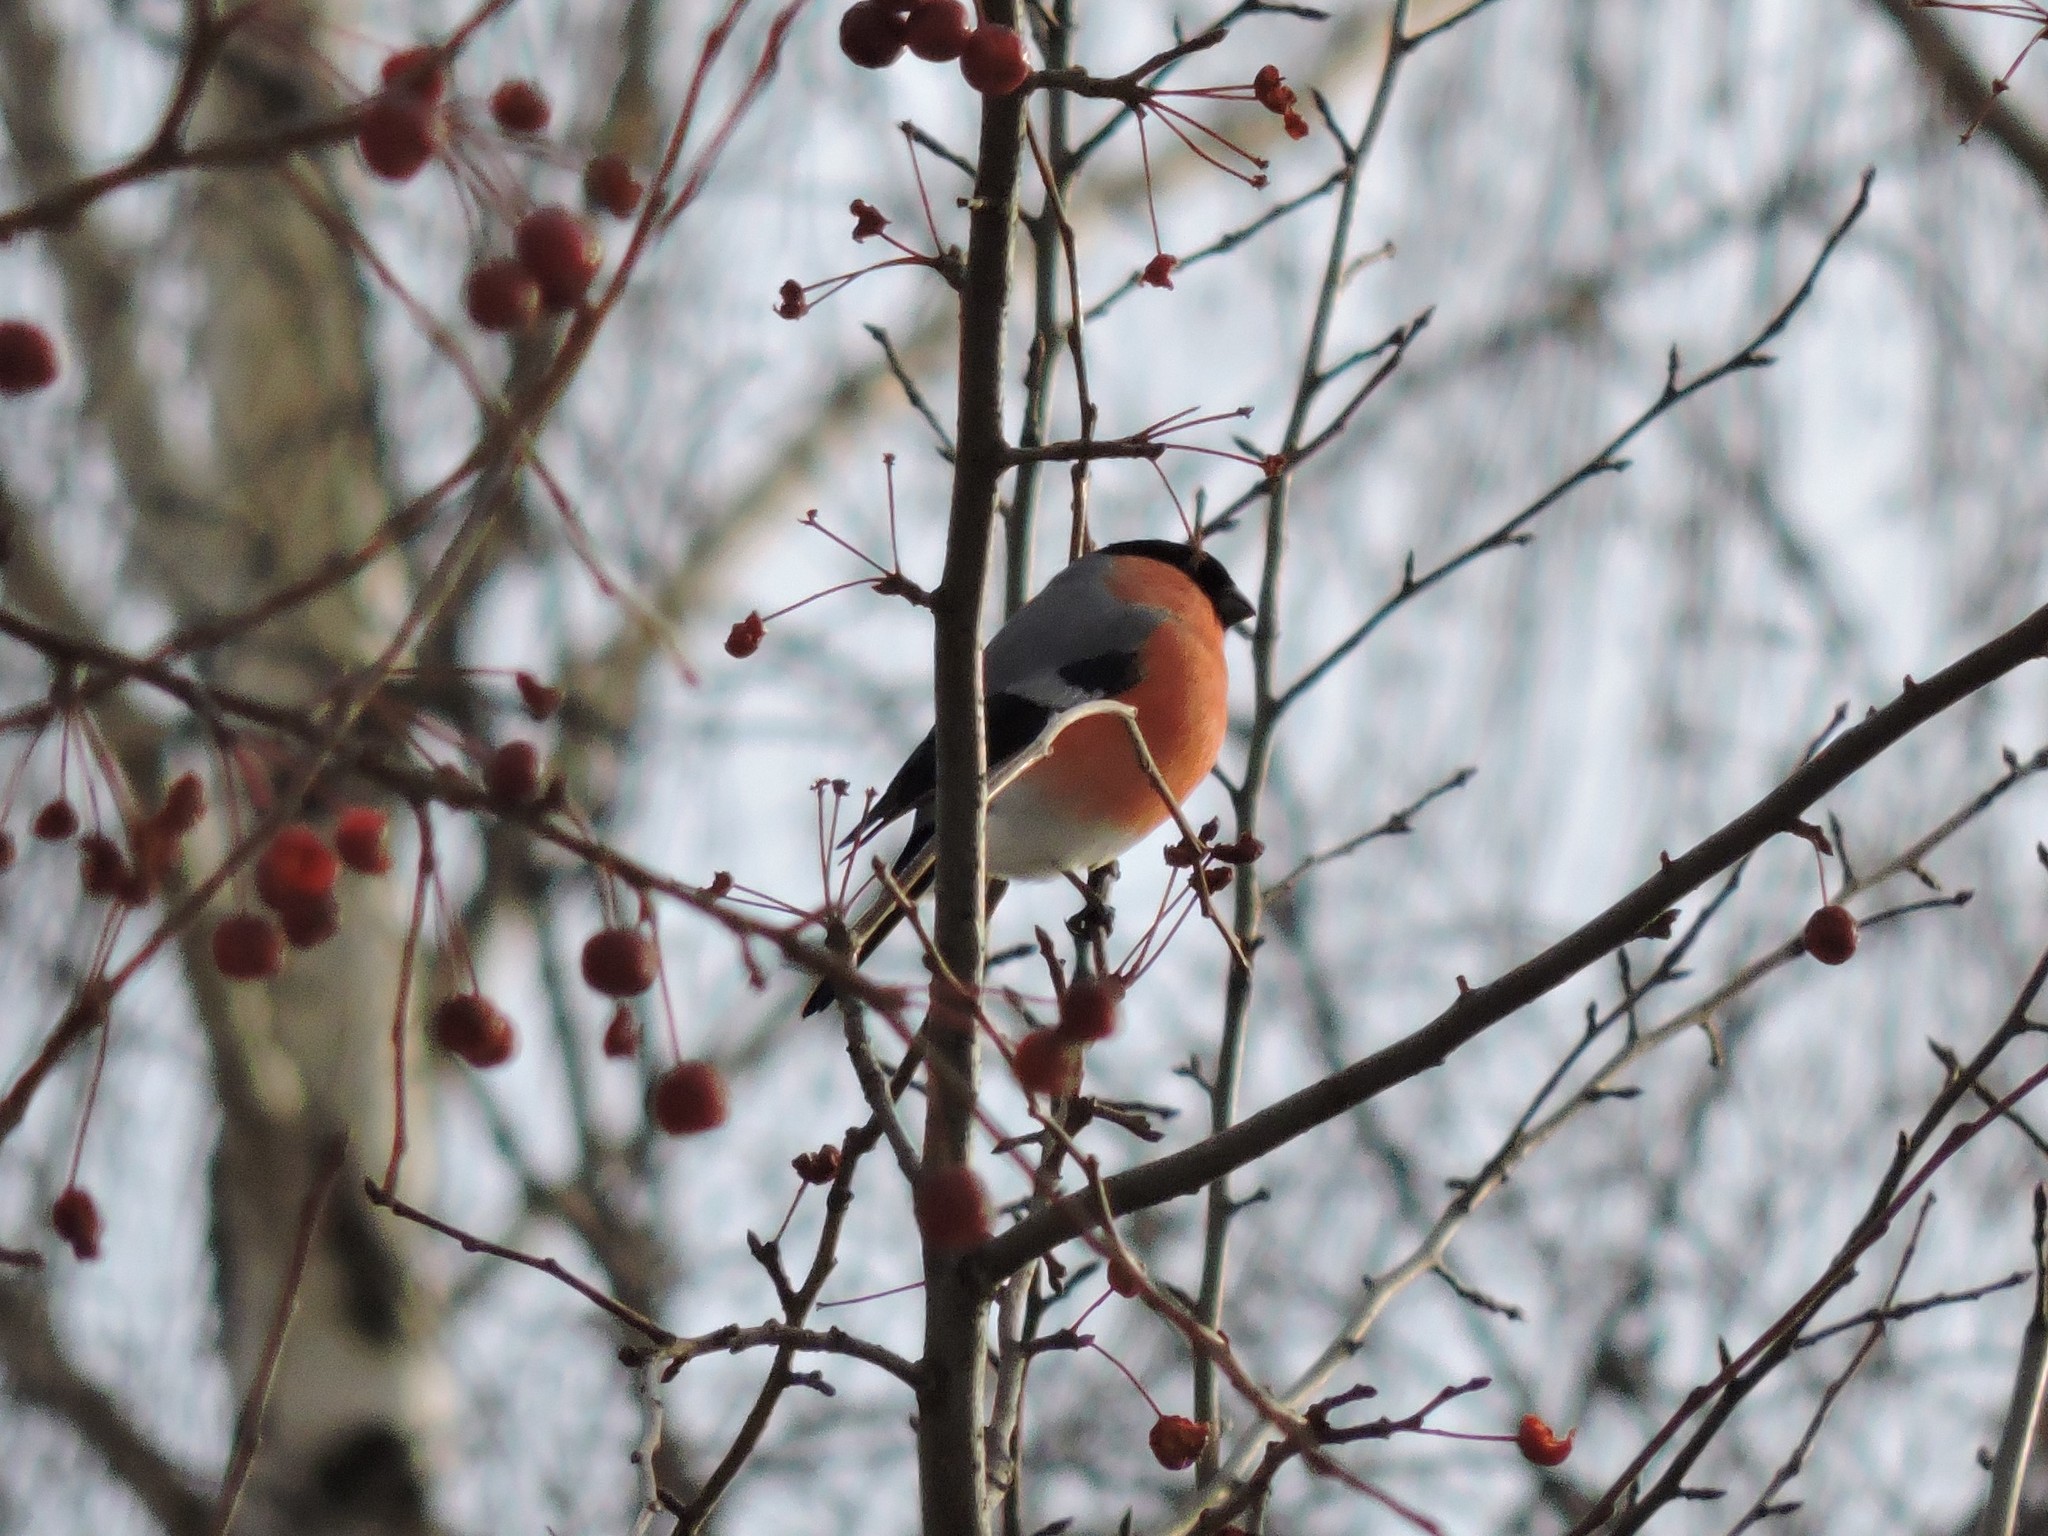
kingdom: Animalia
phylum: Chordata
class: Aves
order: Passeriformes
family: Fringillidae
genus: Pyrrhula
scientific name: Pyrrhula pyrrhula
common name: Eurasian bullfinch
